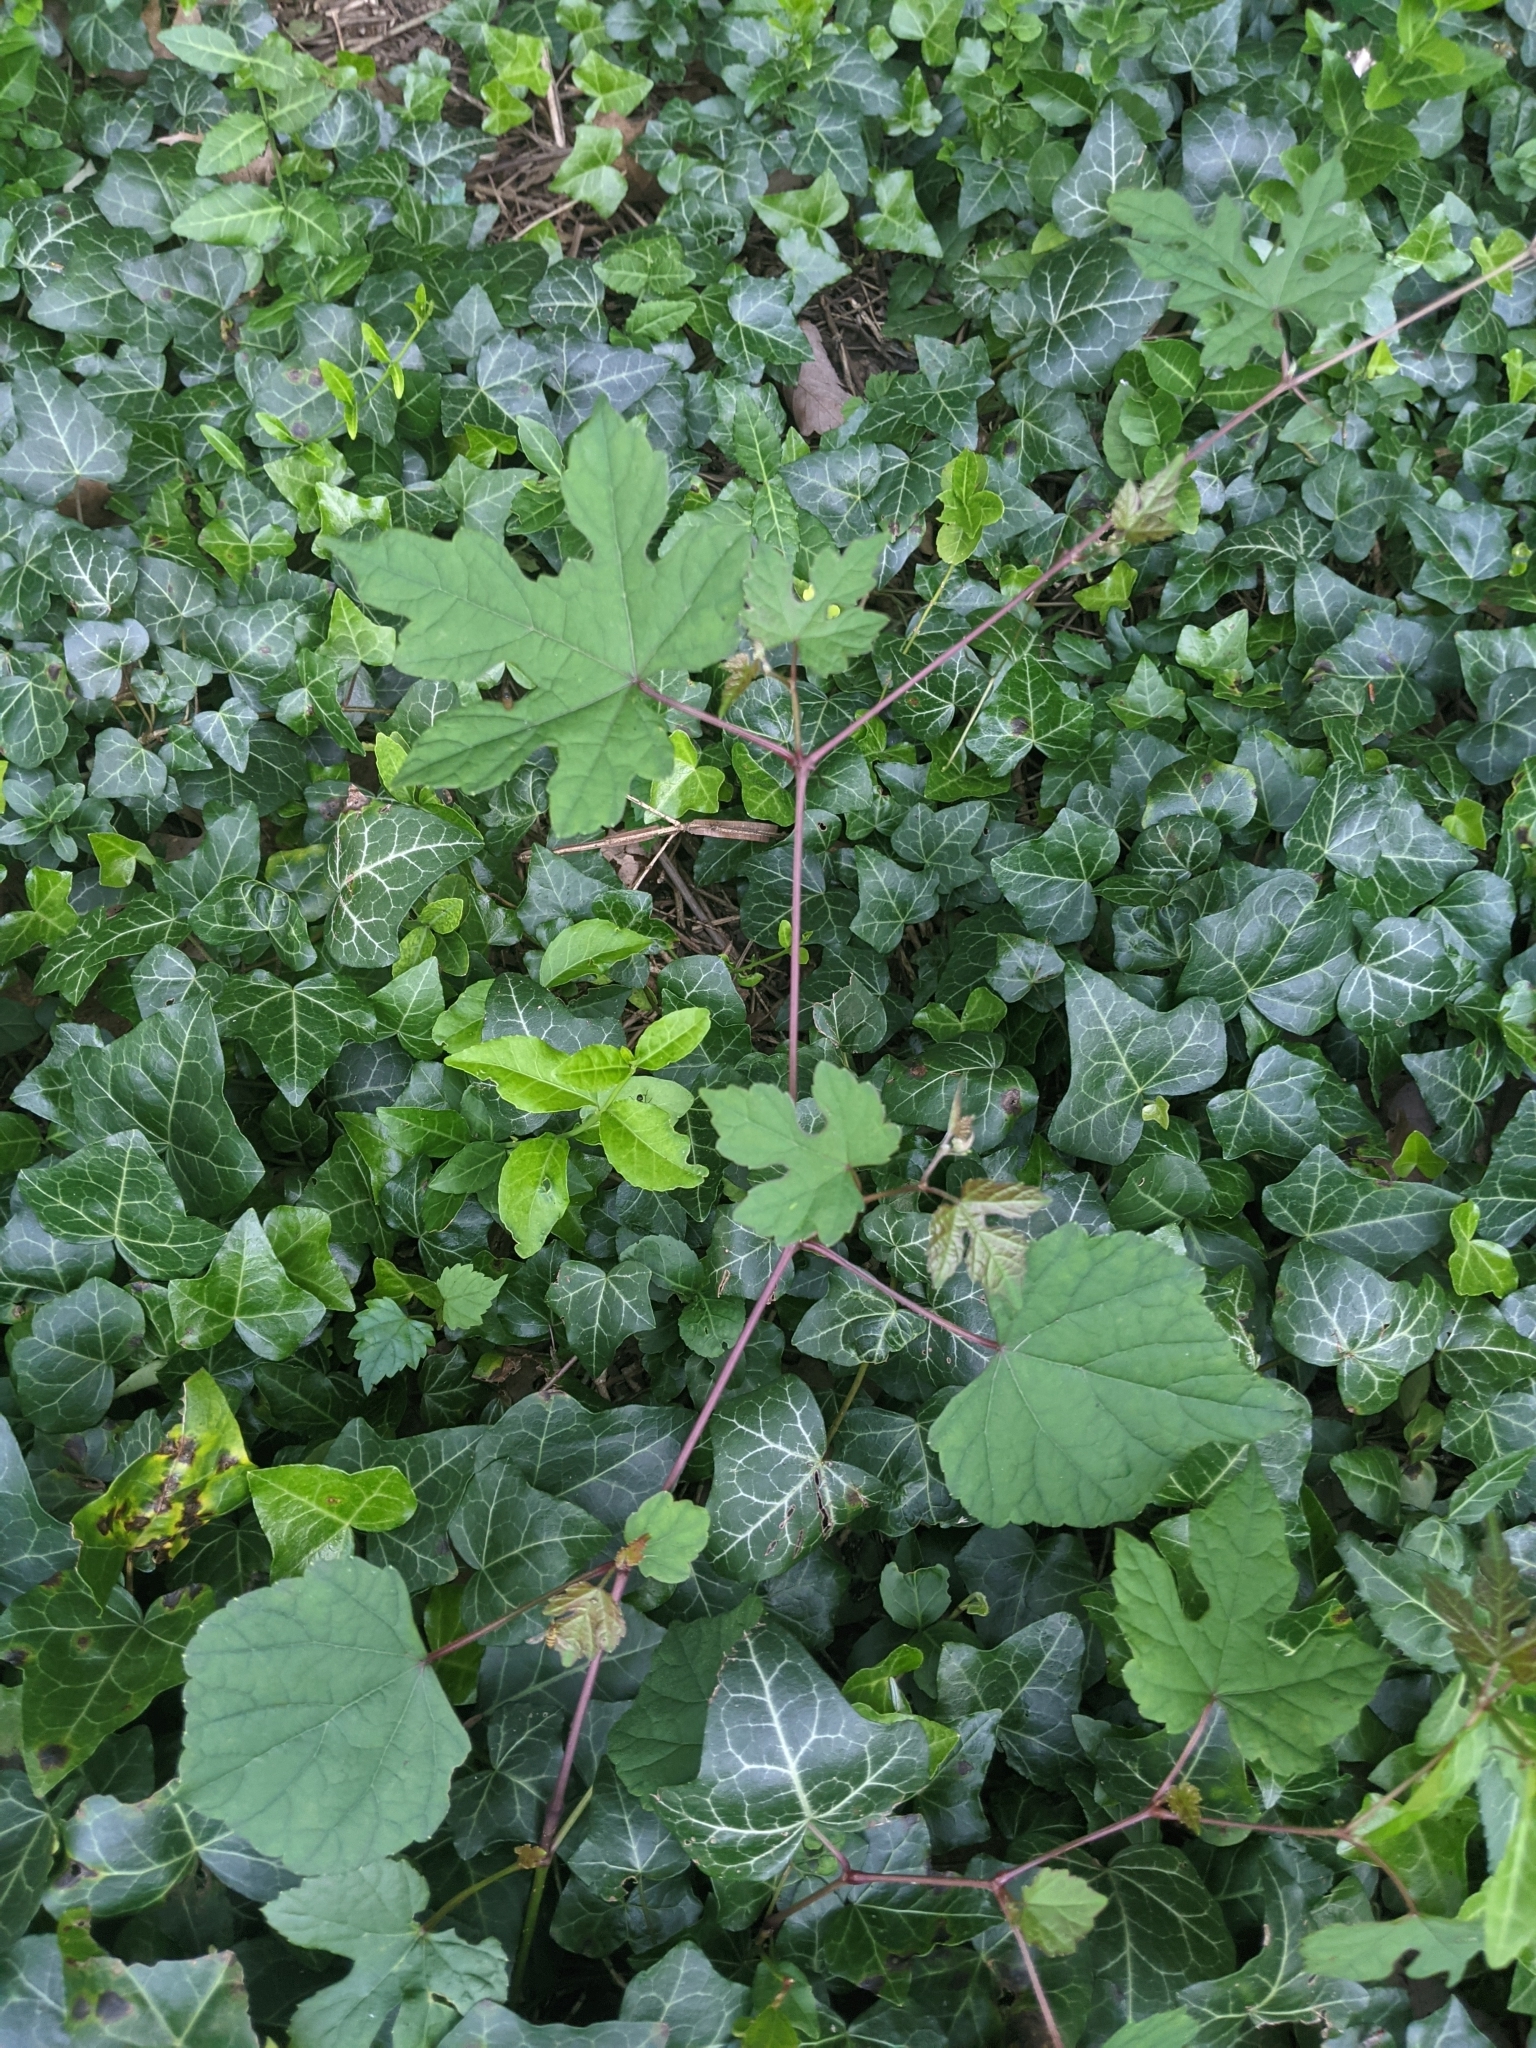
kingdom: Plantae
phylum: Tracheophyta
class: Magnoliopsida
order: Vitales
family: Vitaceae
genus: Ampelopsis
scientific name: Ampelopsis glandulosa
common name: Amur peppervine
